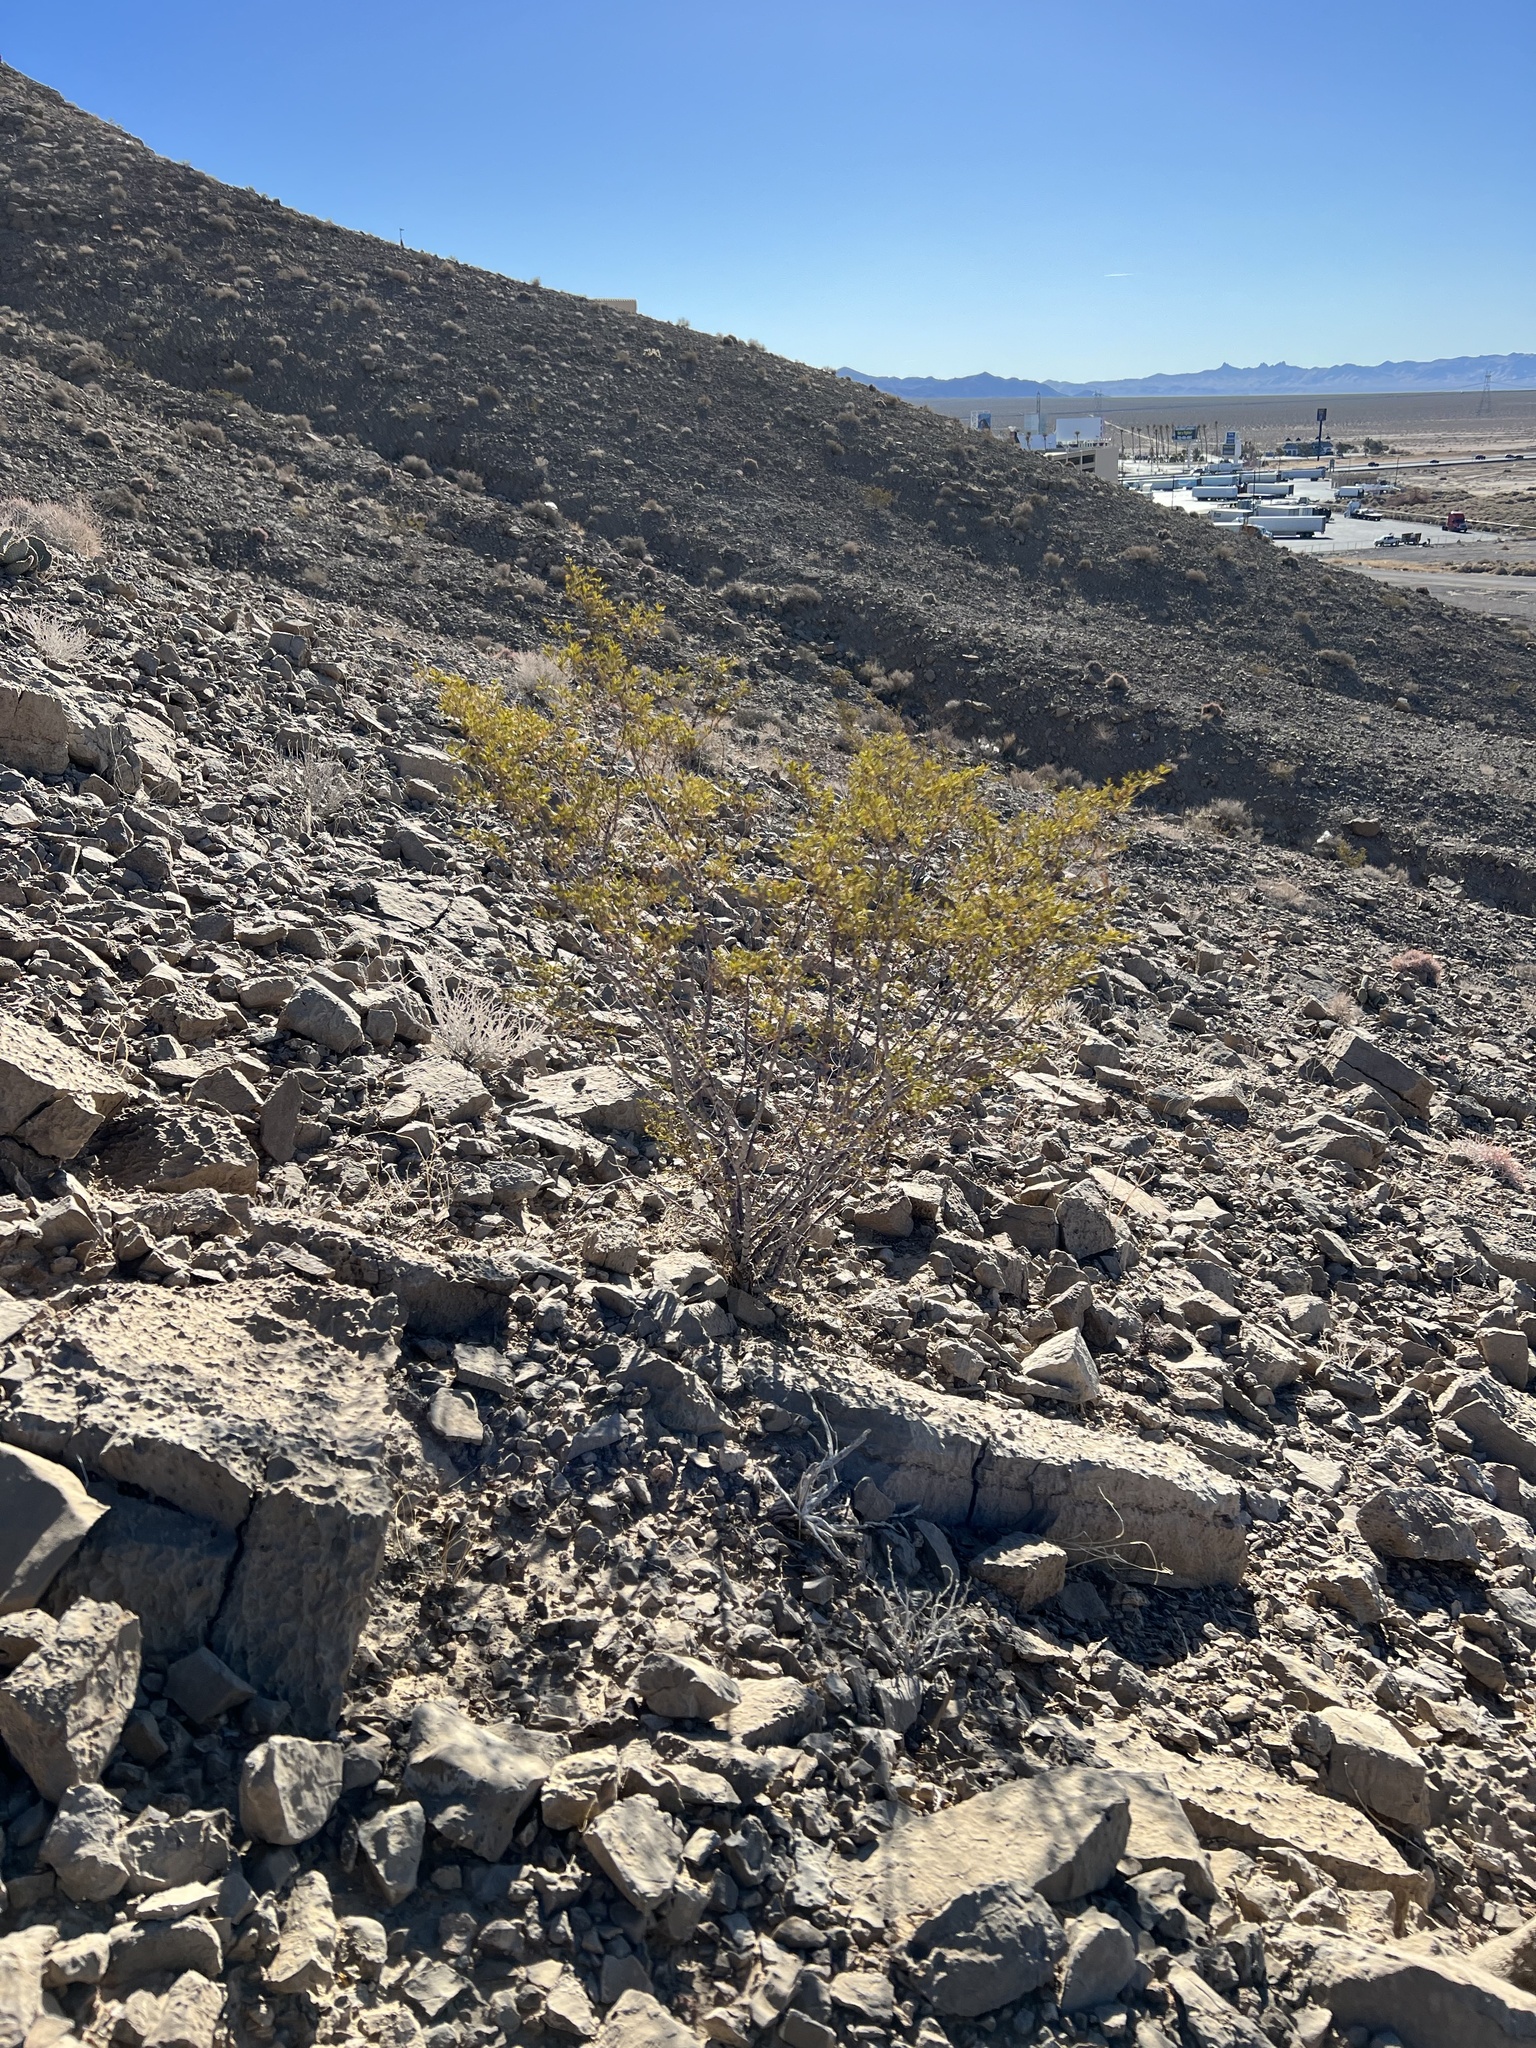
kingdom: Plantae
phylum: Tracheophyta
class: Magnoliopsida
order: Zygophyllales
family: Zygophyllaceae
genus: Larrea
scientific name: Larrea tridentata
